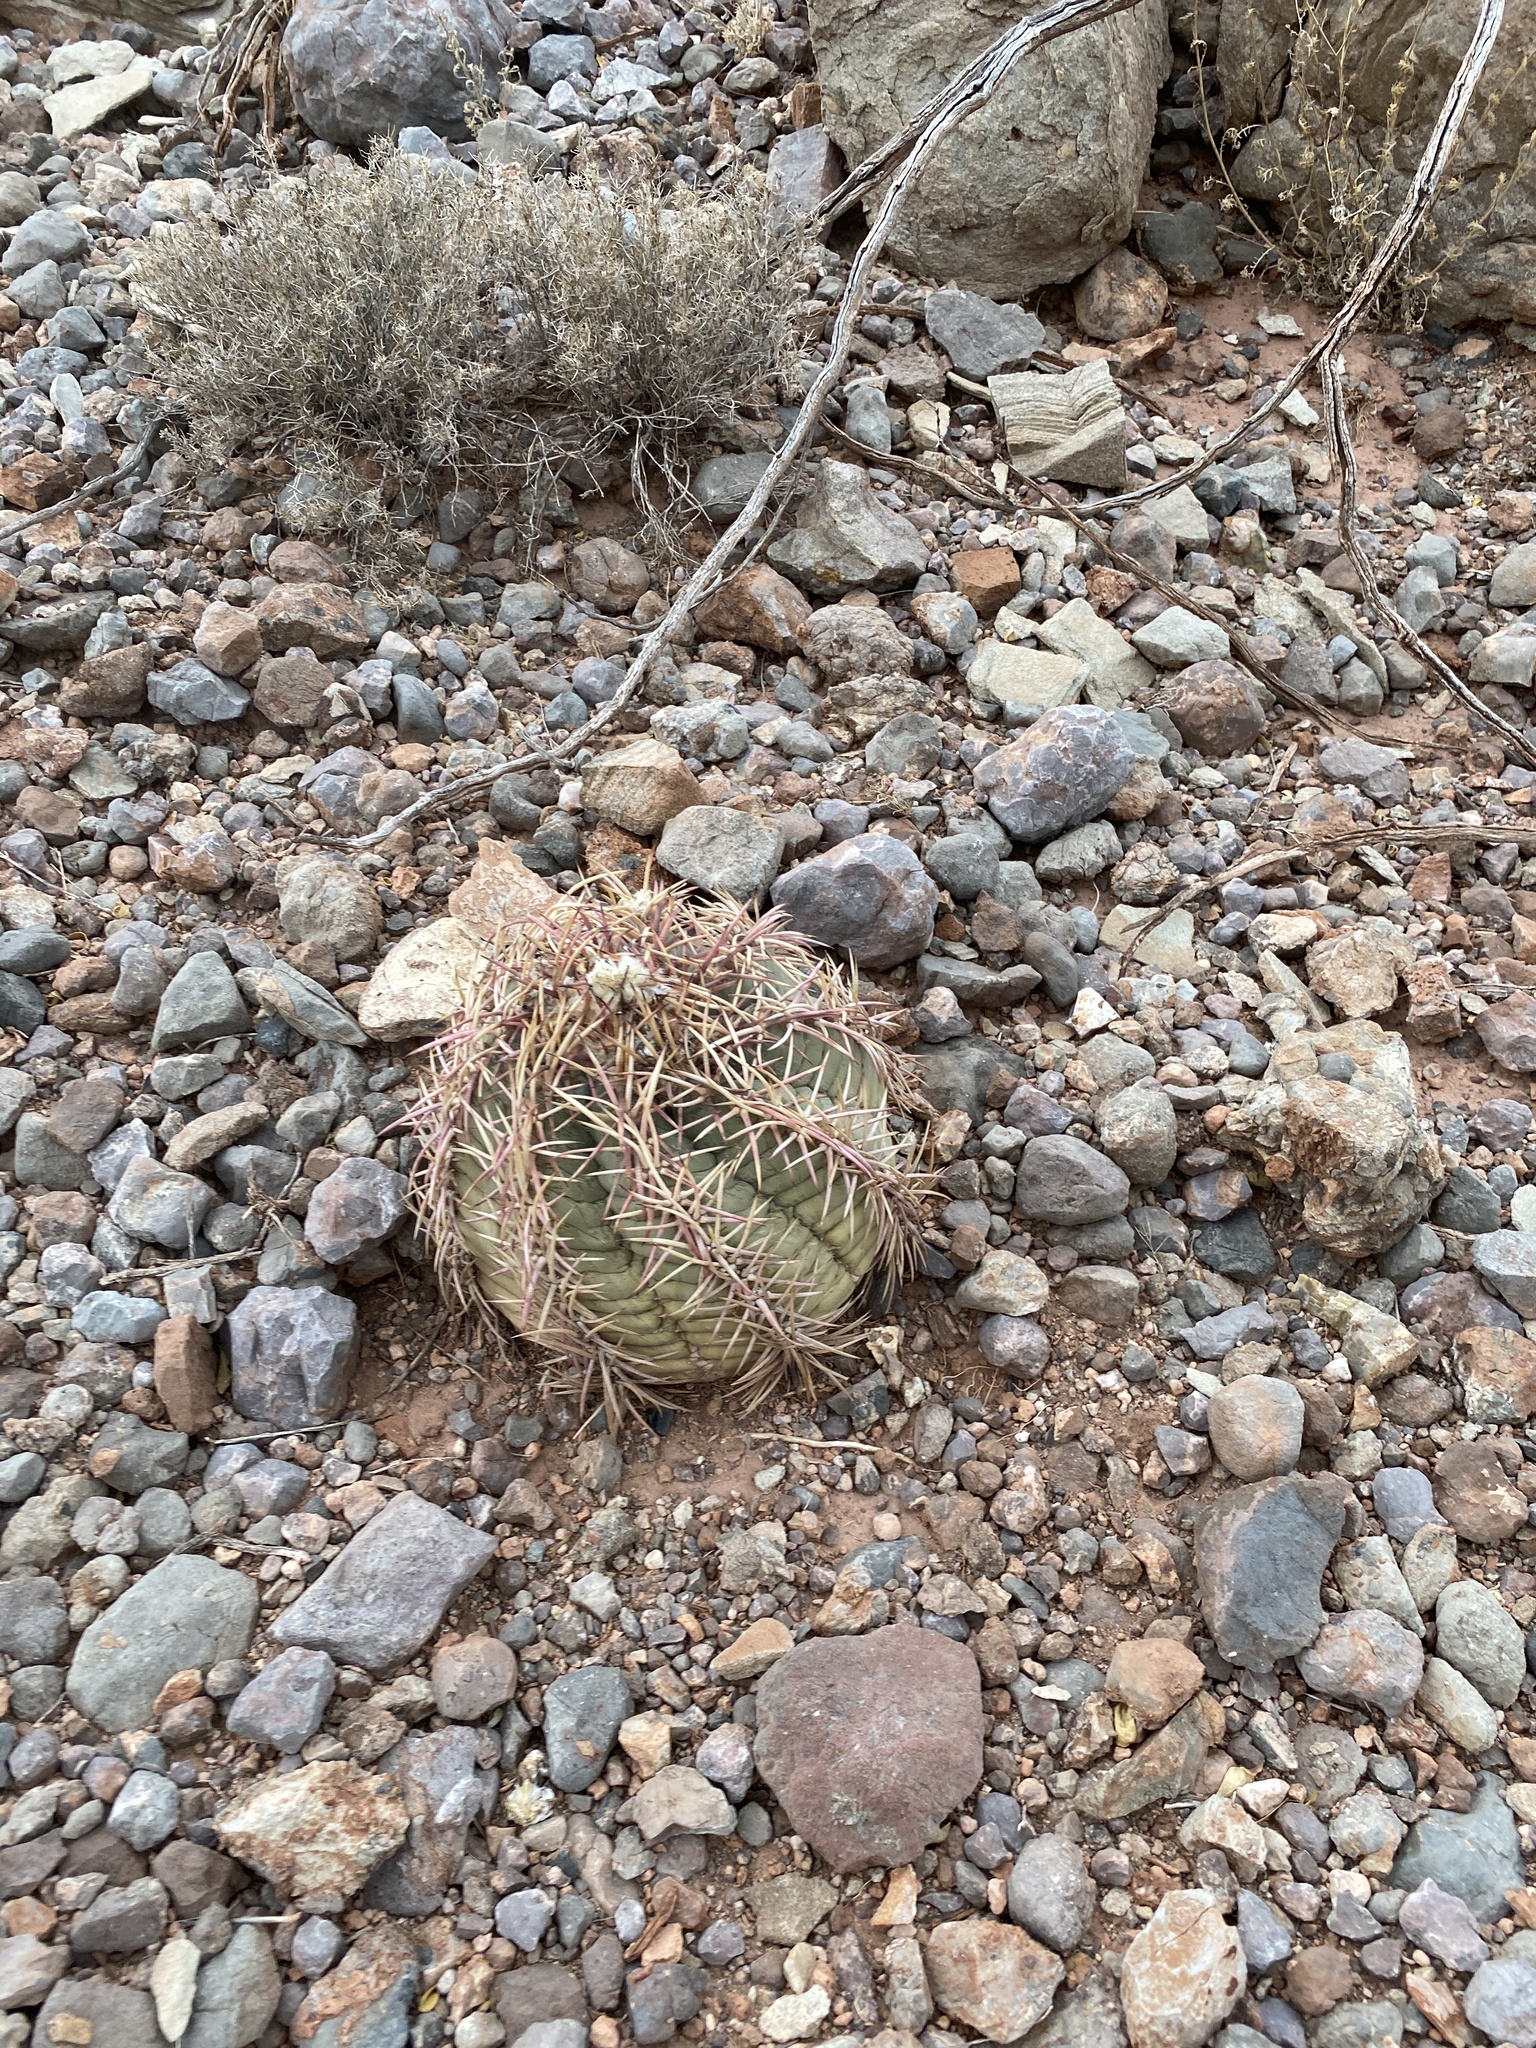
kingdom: Plantae
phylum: Tracheophyta
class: Magnoliopsida
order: Caryophyllales
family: Cactaceae
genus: Echinocactus
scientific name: Echinocactus horizonthalonius
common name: Devilshead
